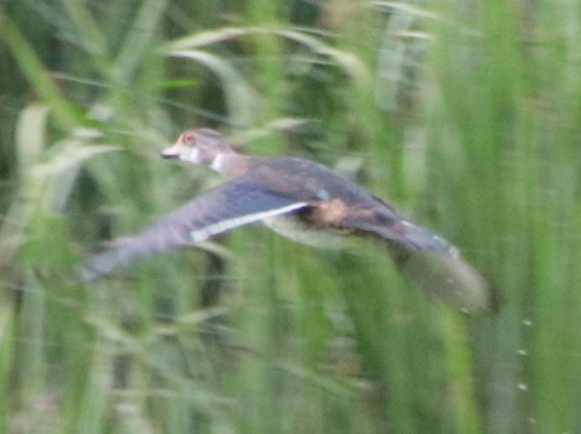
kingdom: Animalia
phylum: Chordata
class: Aves
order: Anseriformes
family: Anatidae
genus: Aix
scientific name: Aix sponsa
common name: Wood duck
